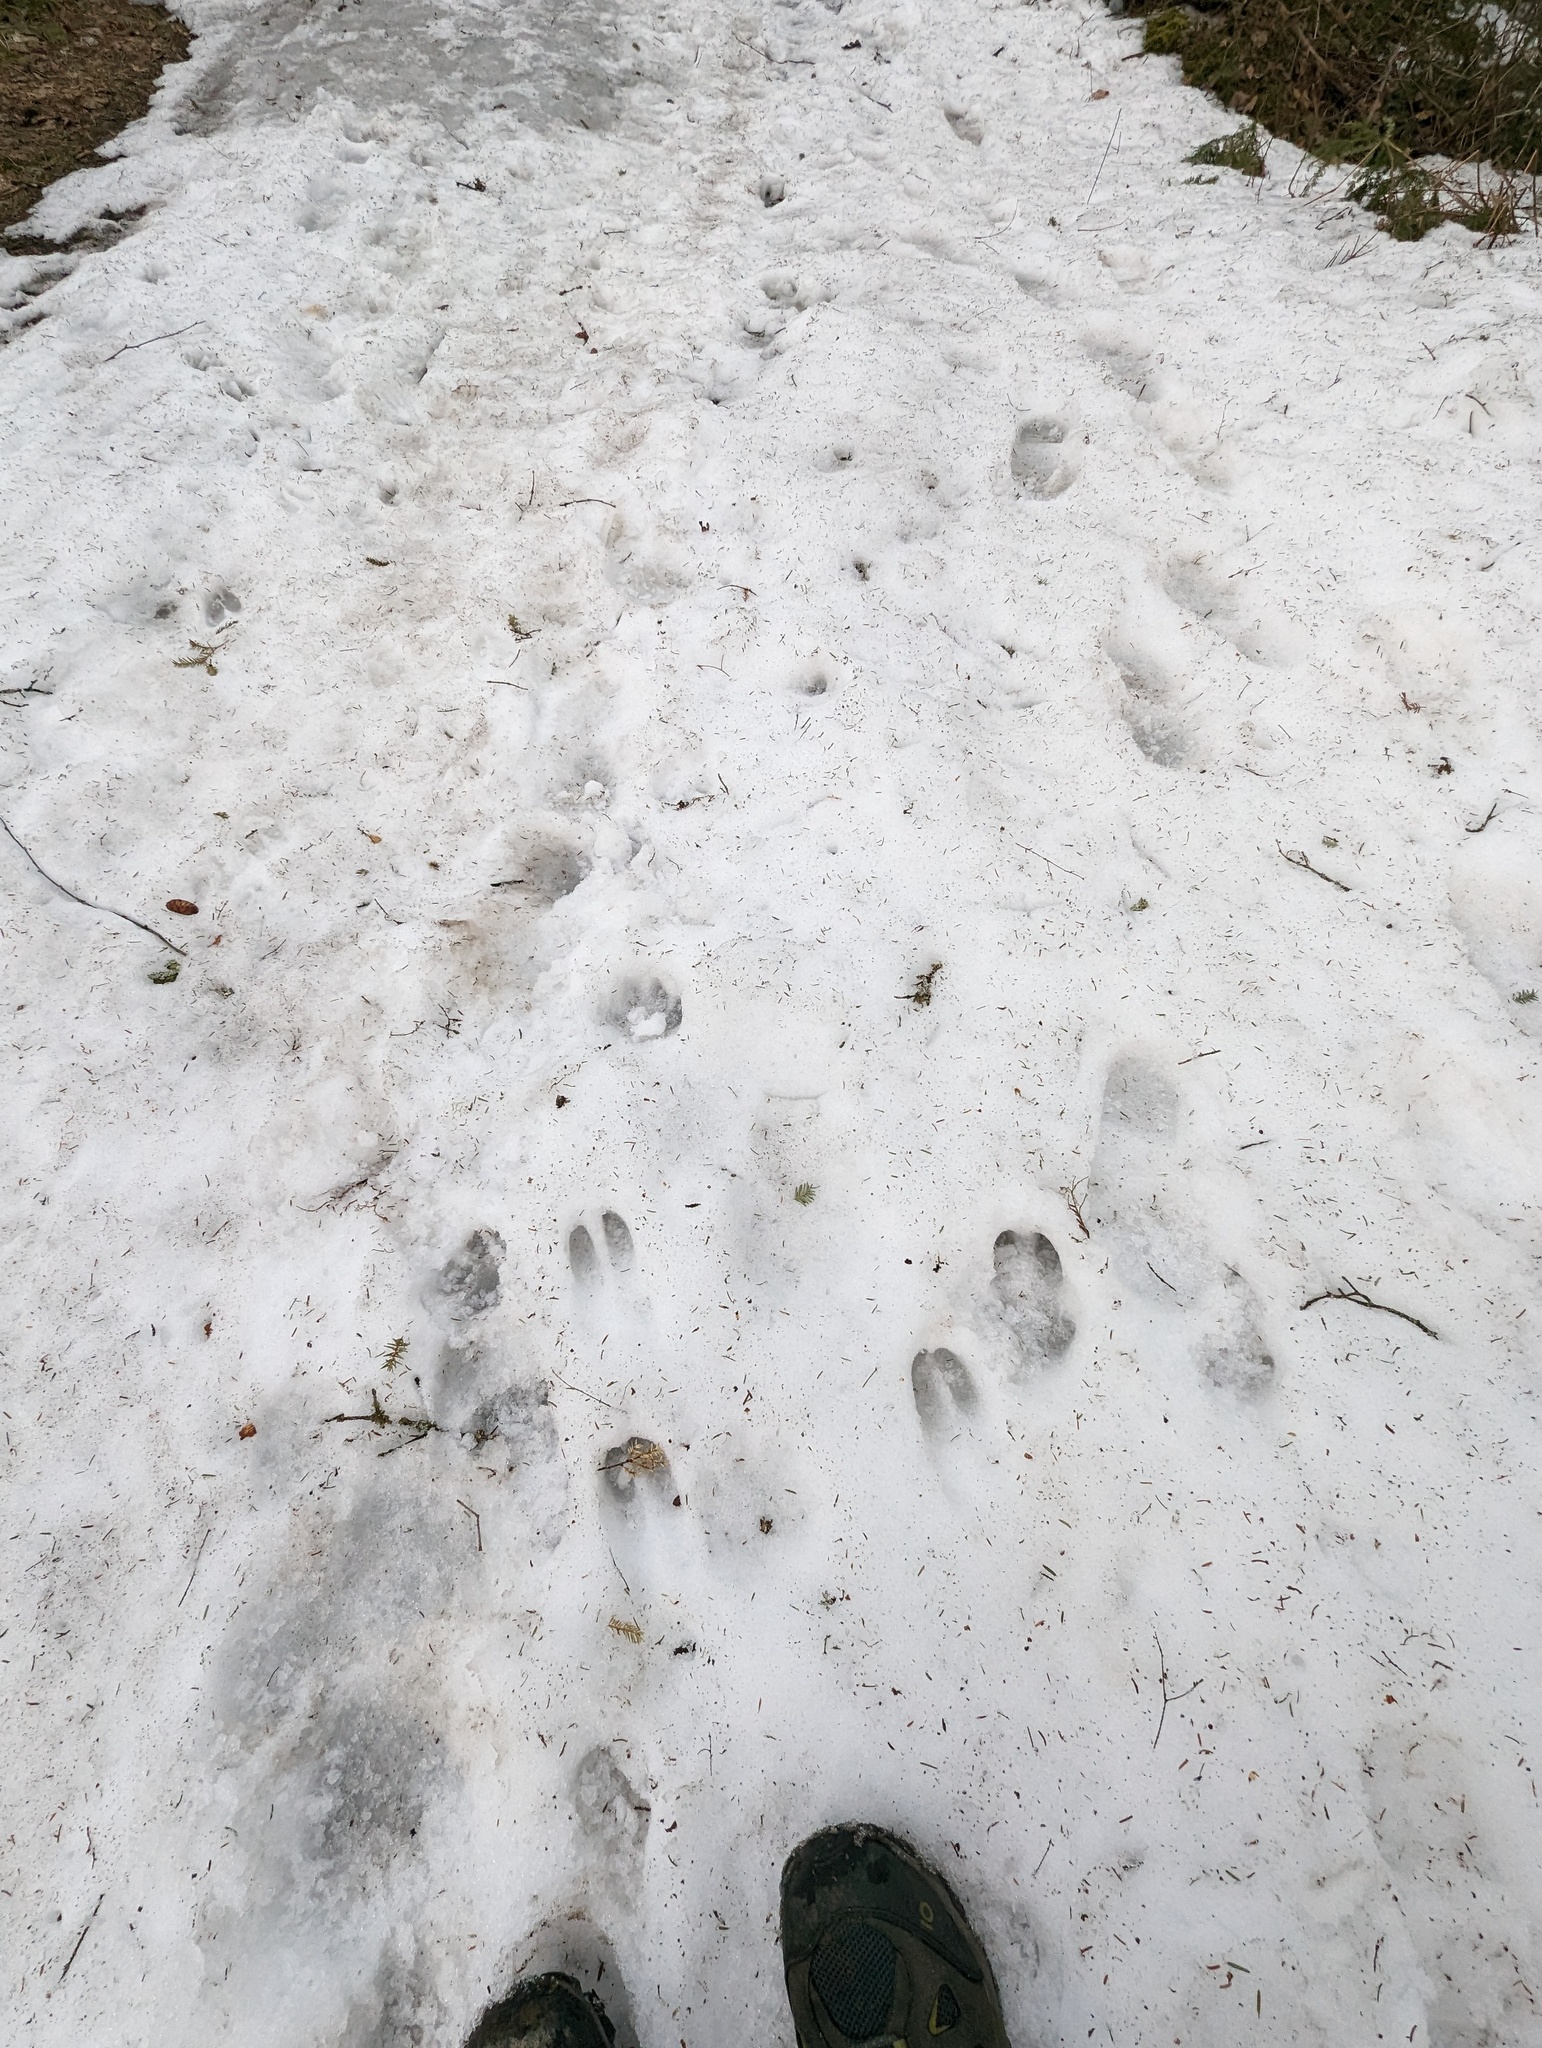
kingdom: Animalia
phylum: Chordata
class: Mammalia
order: Artiodactyla
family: Cervidae
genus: Odocoileus
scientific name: Odocoileus virginianus
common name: White-tailed deer
